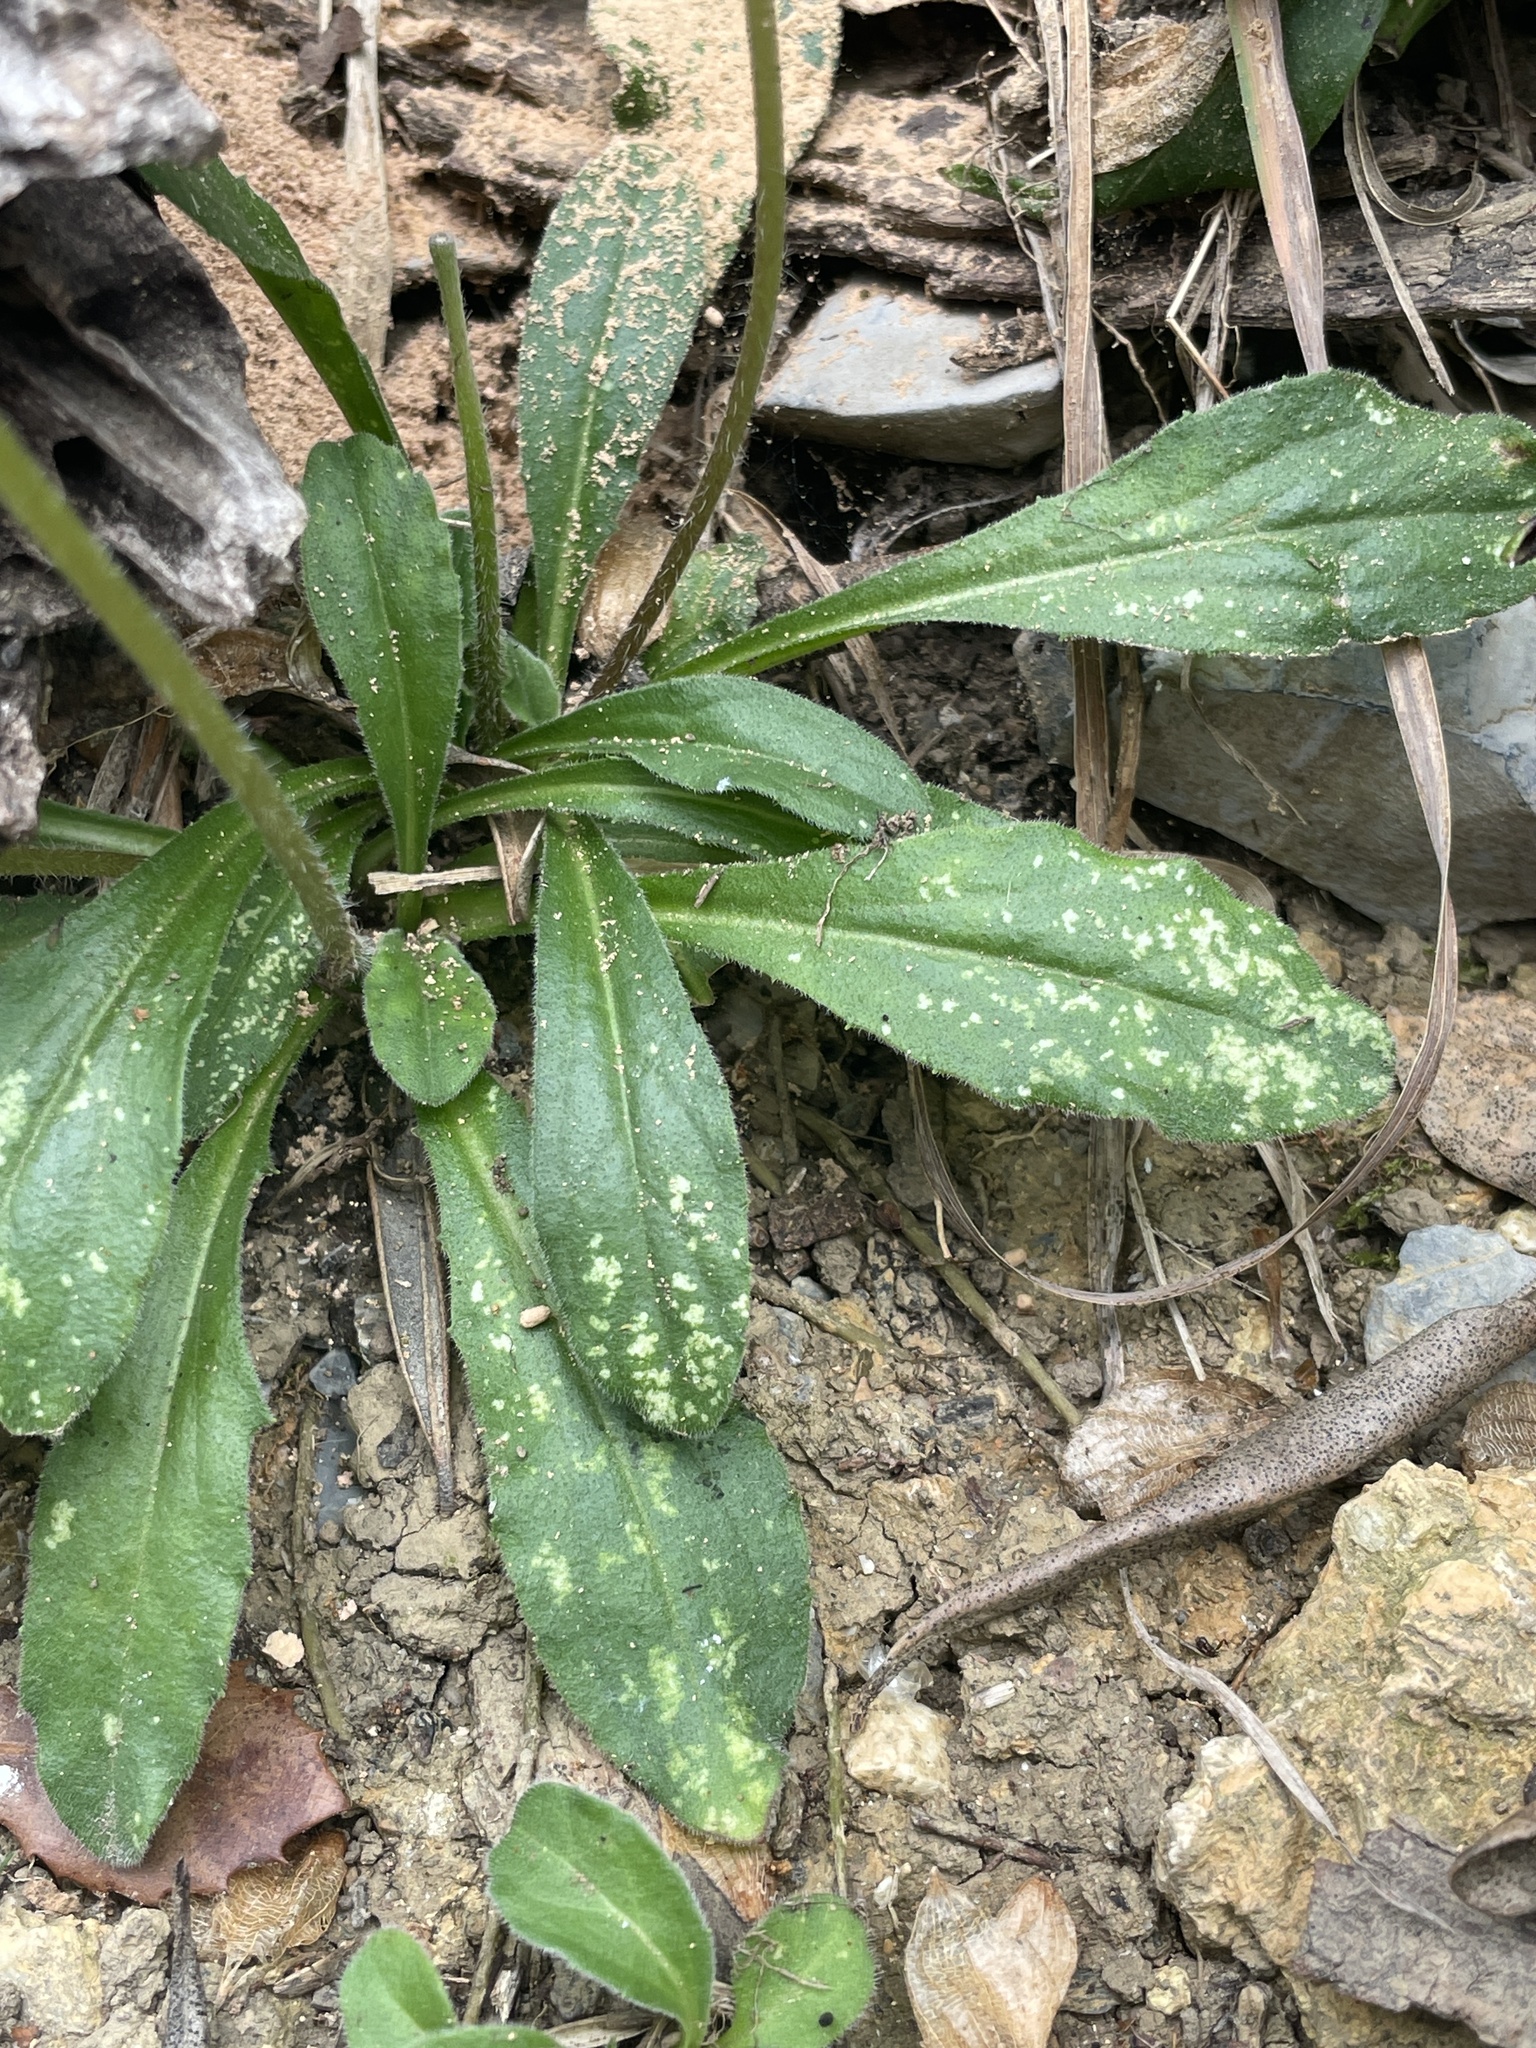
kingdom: Plantae
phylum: Tracheophyta
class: Magnoliopsida
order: Asterales
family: Asteraceae
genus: Bellis
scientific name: Bellis sylvestris
